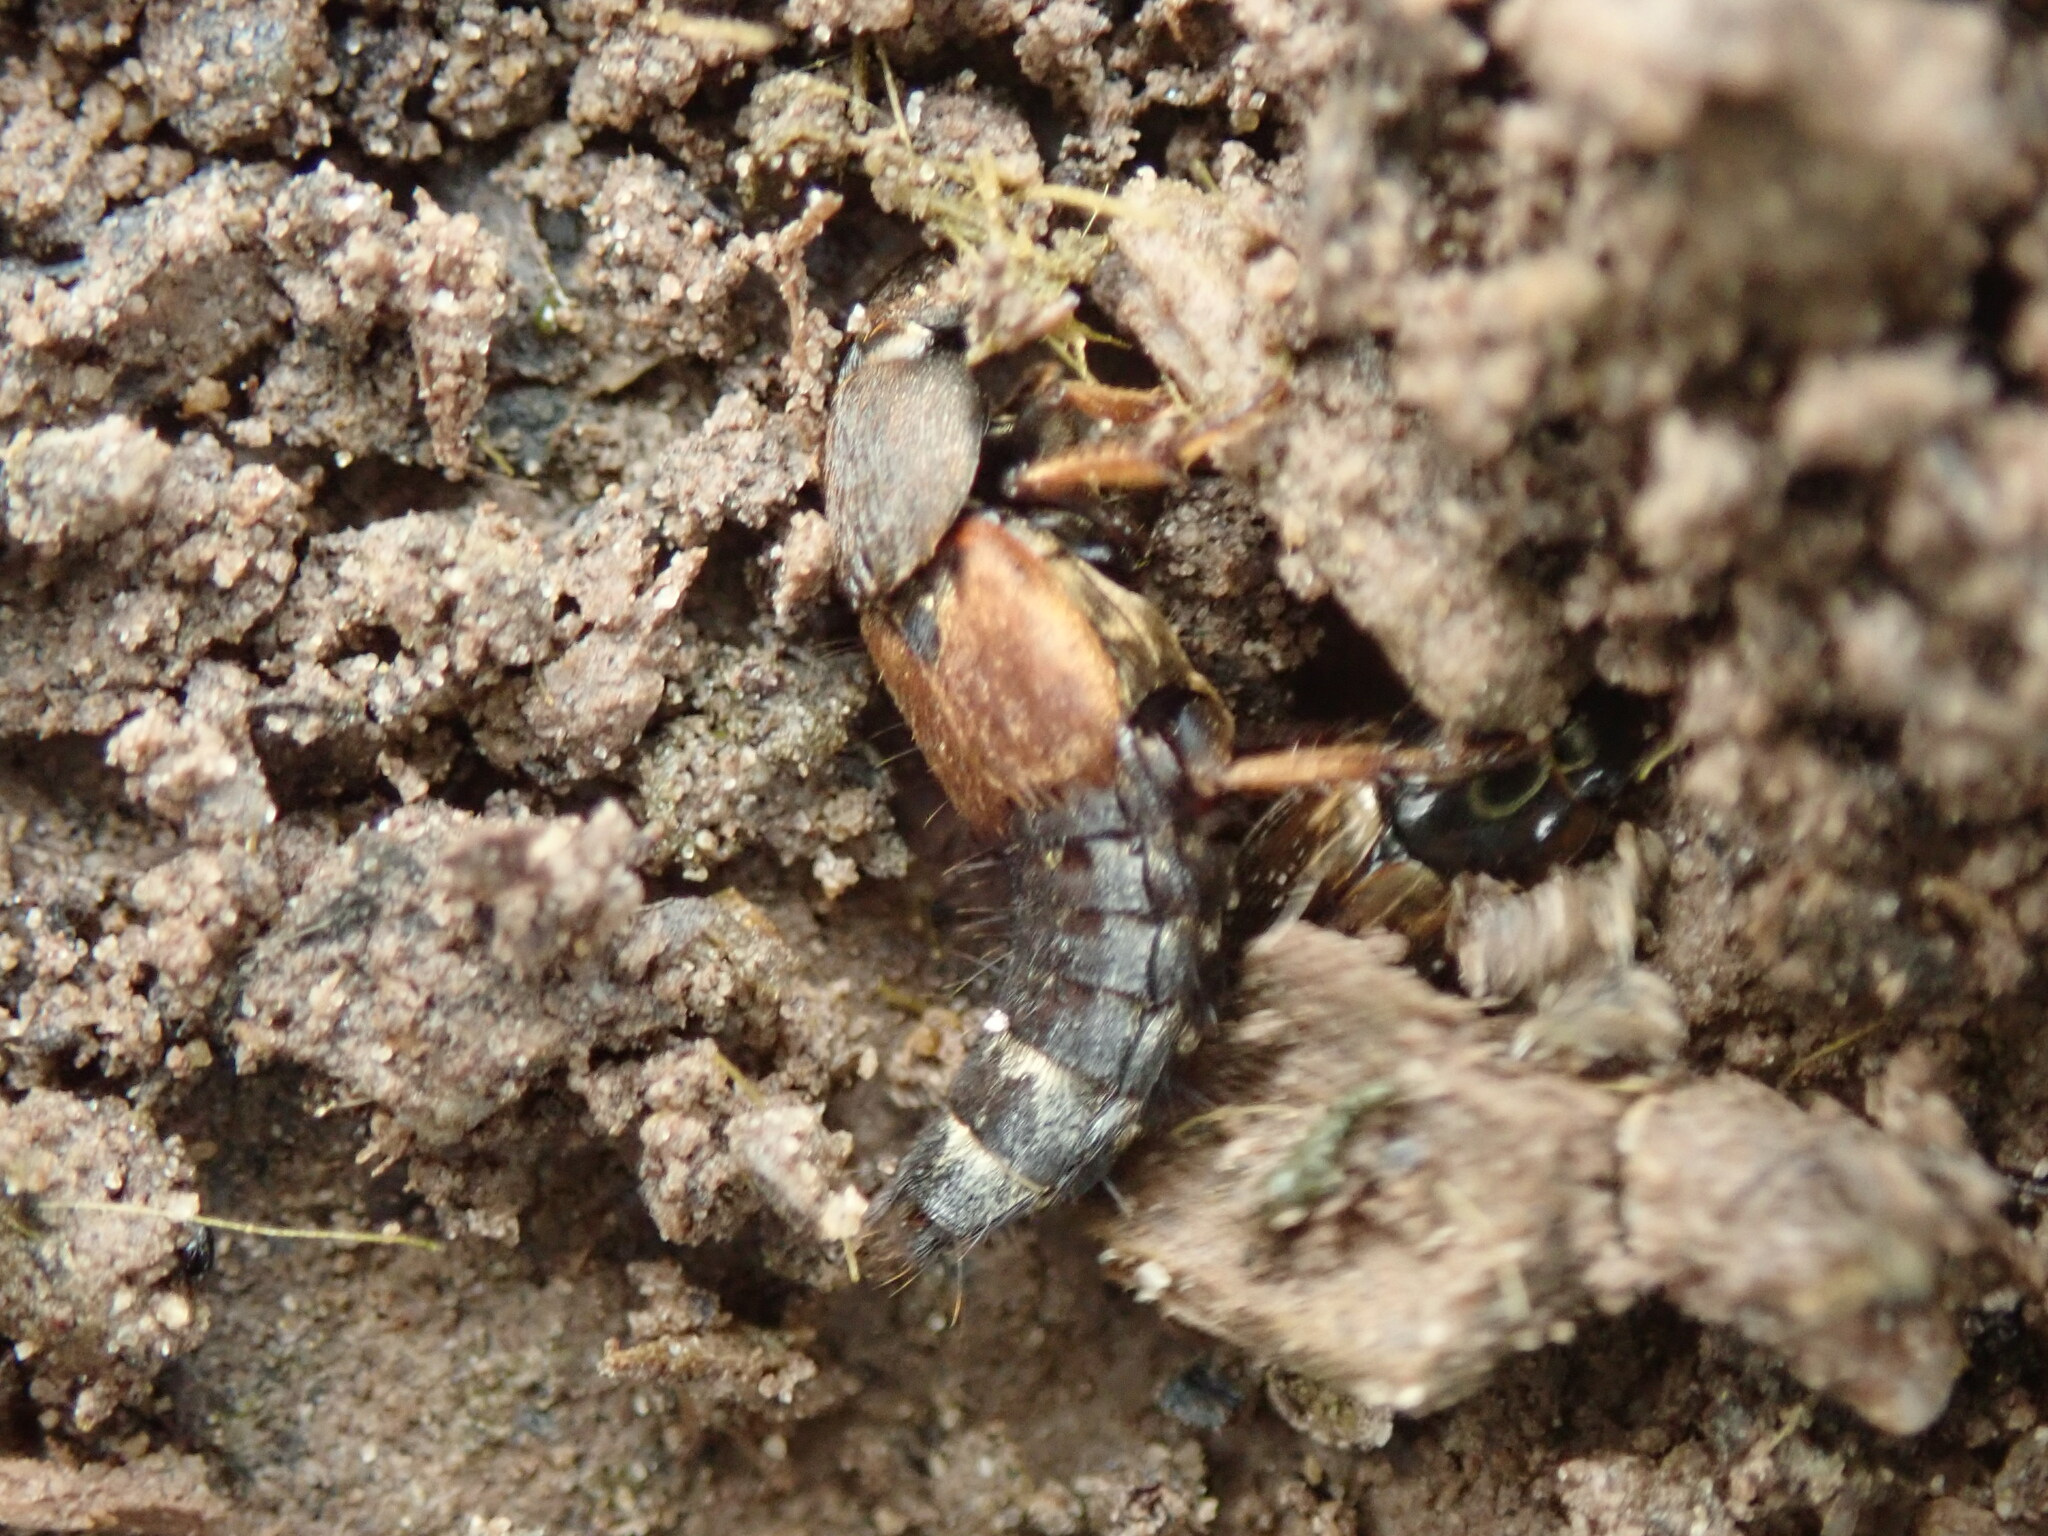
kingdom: Animalia
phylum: Arthropoda
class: Insecta
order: Coleoptera
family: Staphylinidae
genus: Platydracus
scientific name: Platydracus chalcocephalus
